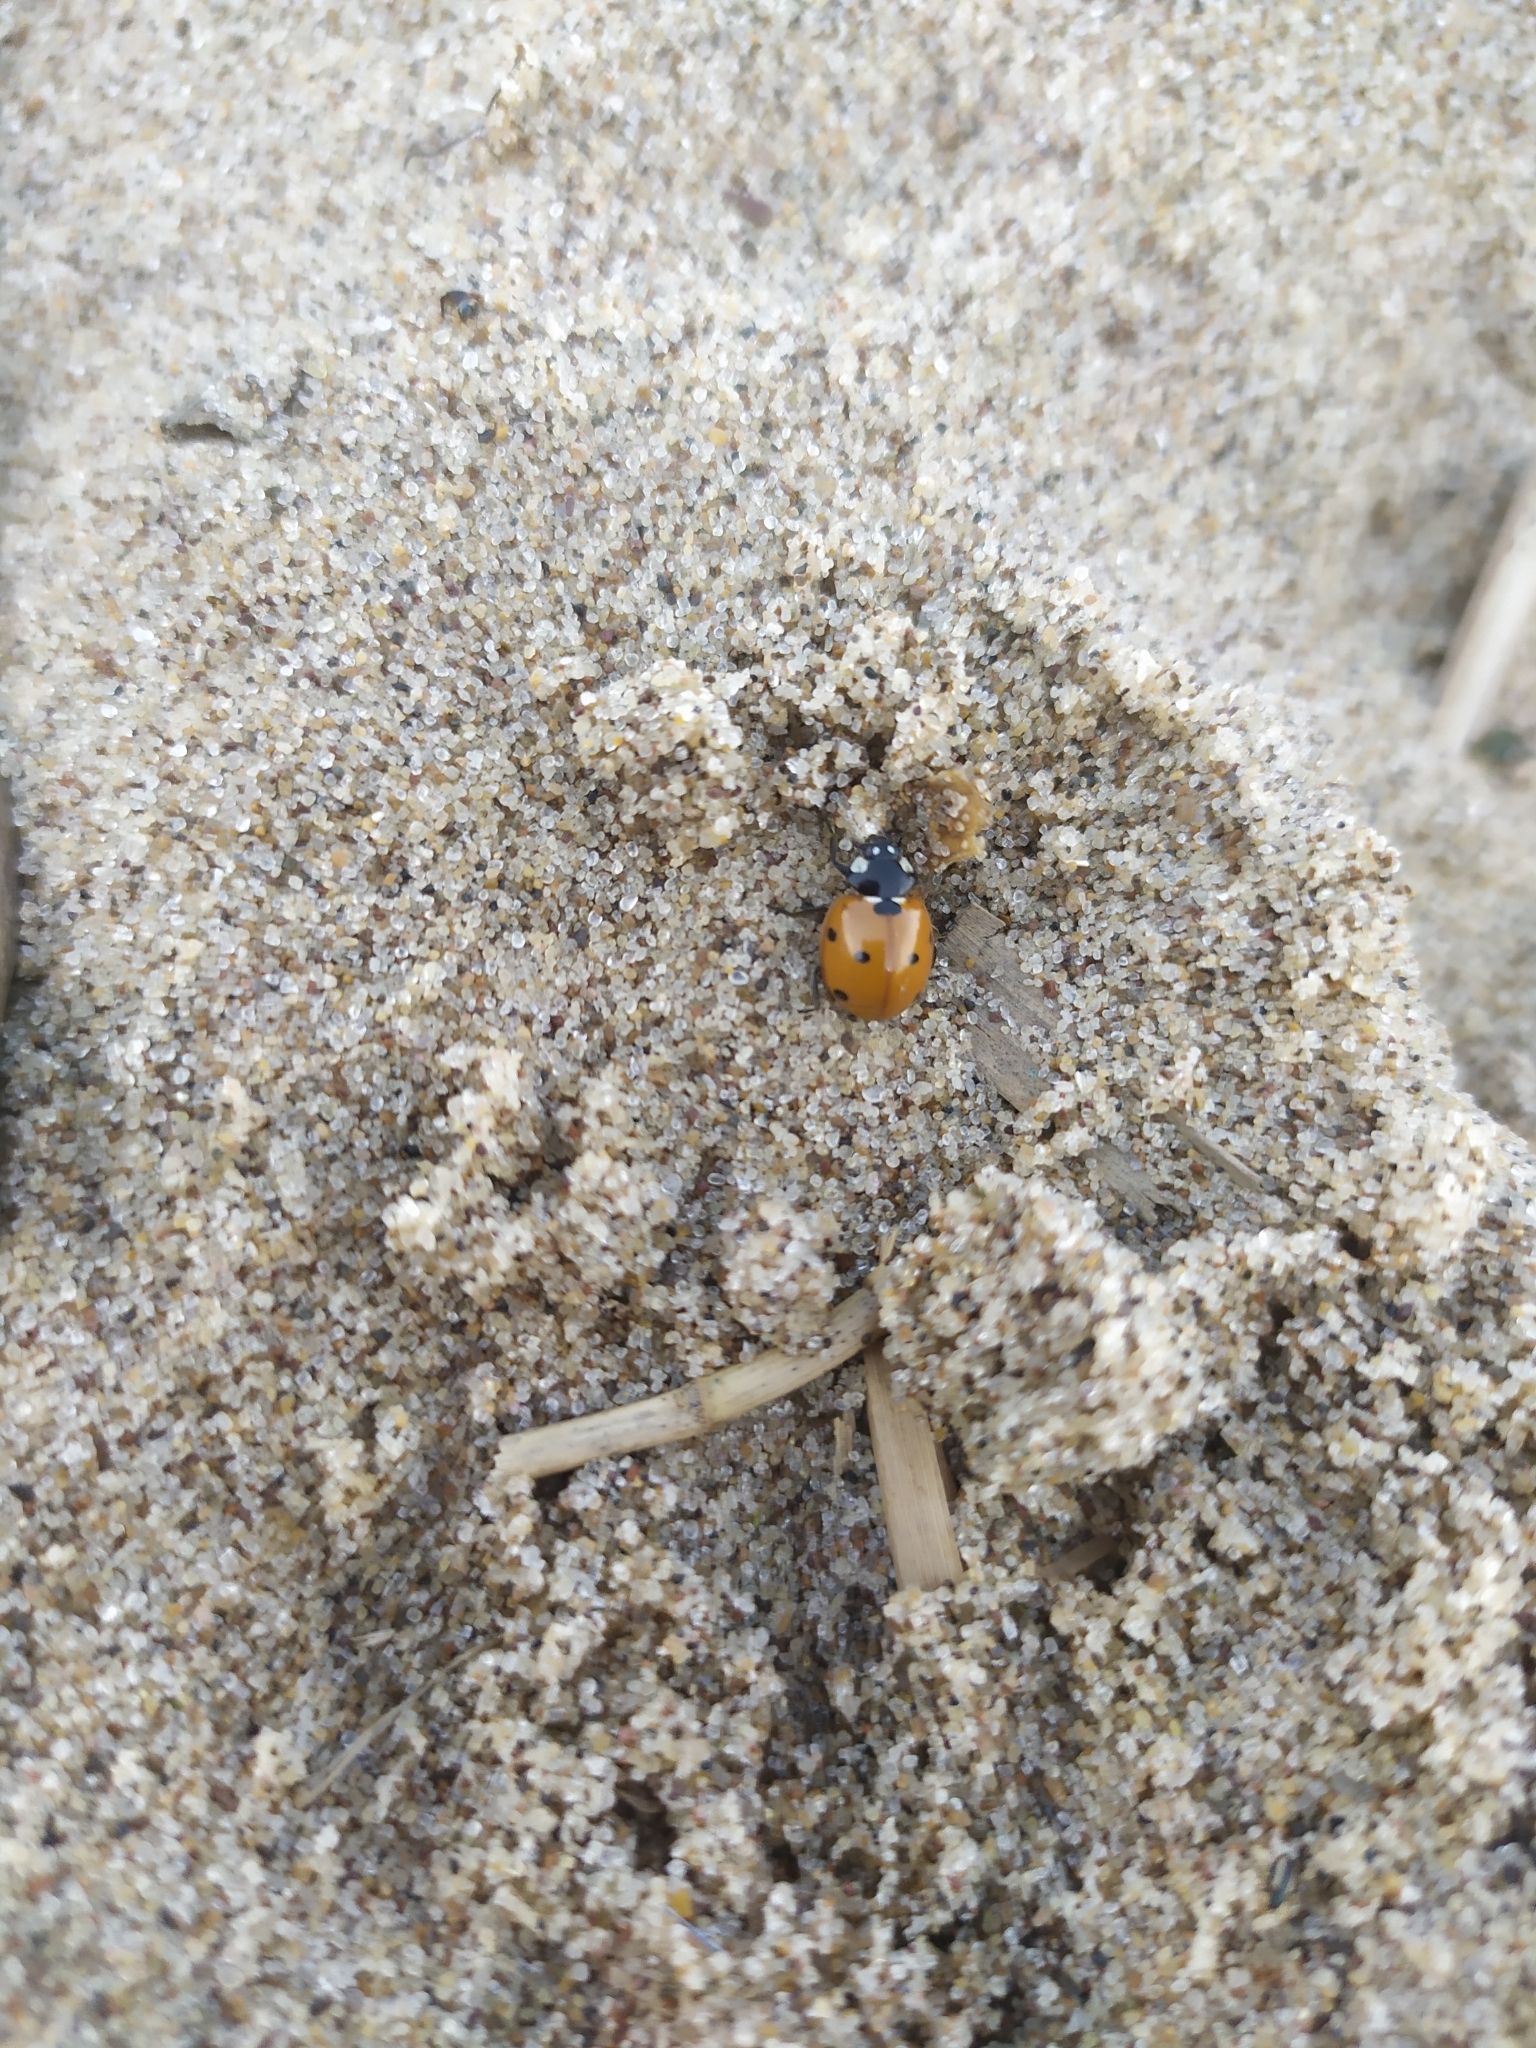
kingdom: Animalia
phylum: Arthropoda
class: Insecta
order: Coleoptera
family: Coccinellidae
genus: Coccinella
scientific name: Coccinella septempunctata
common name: Sevenspotted lady beetle
